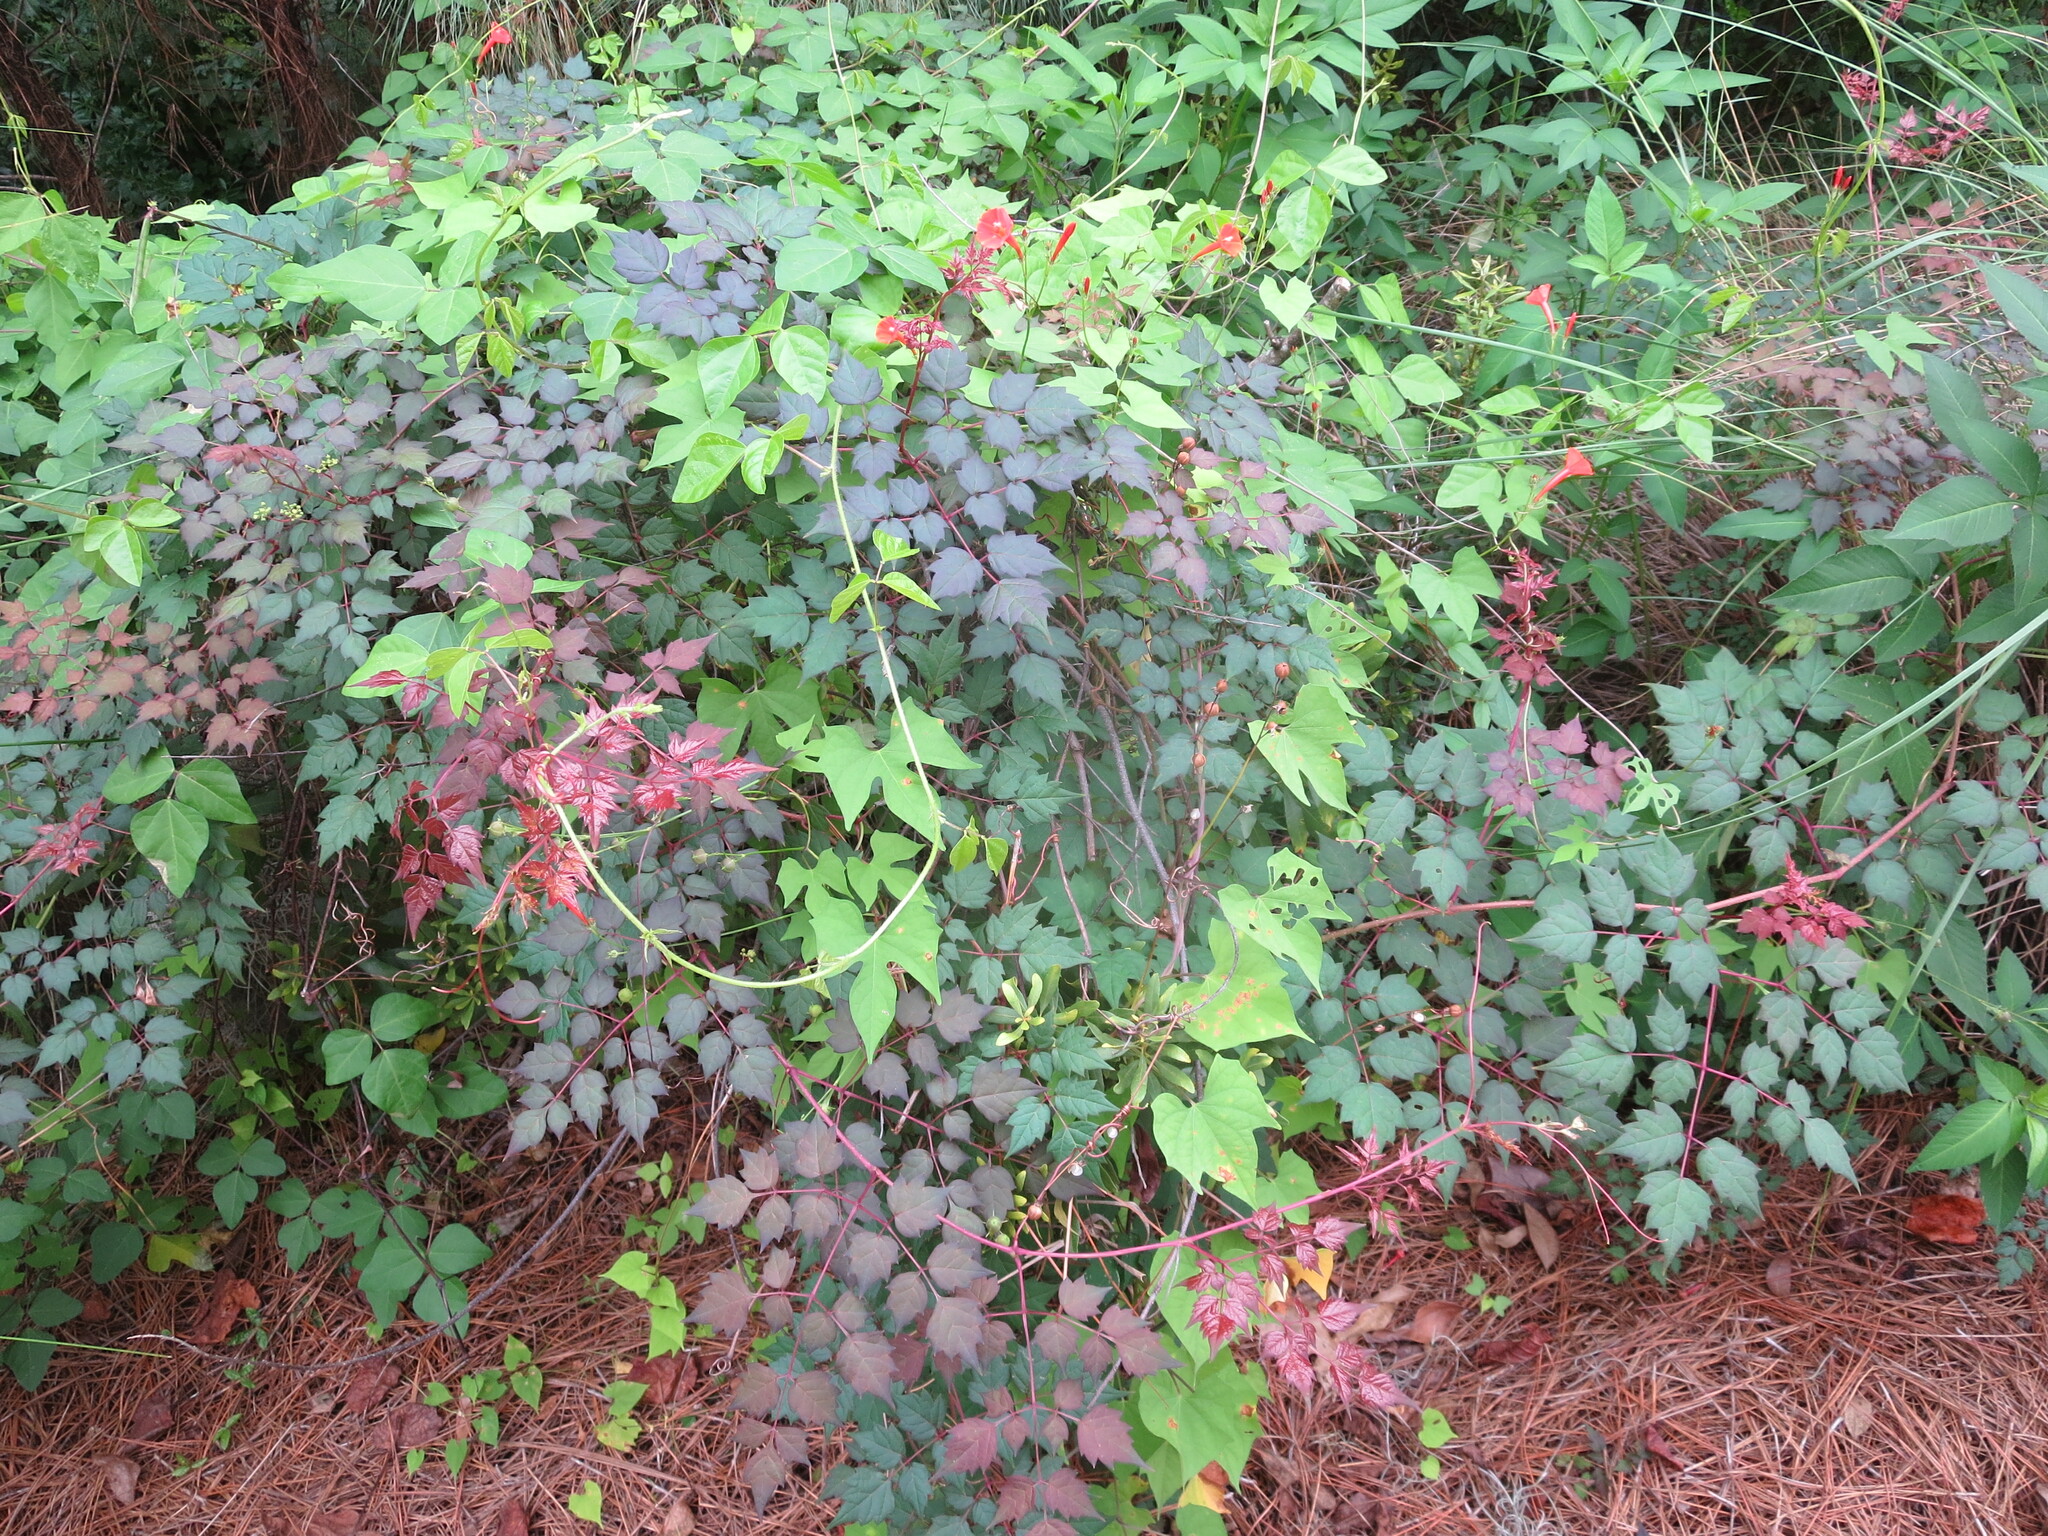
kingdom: Plantae
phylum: Tracheophyta
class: Magnoliopsida
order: Vitales
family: Vitaceae
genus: Nekemias
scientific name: Nekemias arborea
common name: Peppervine
